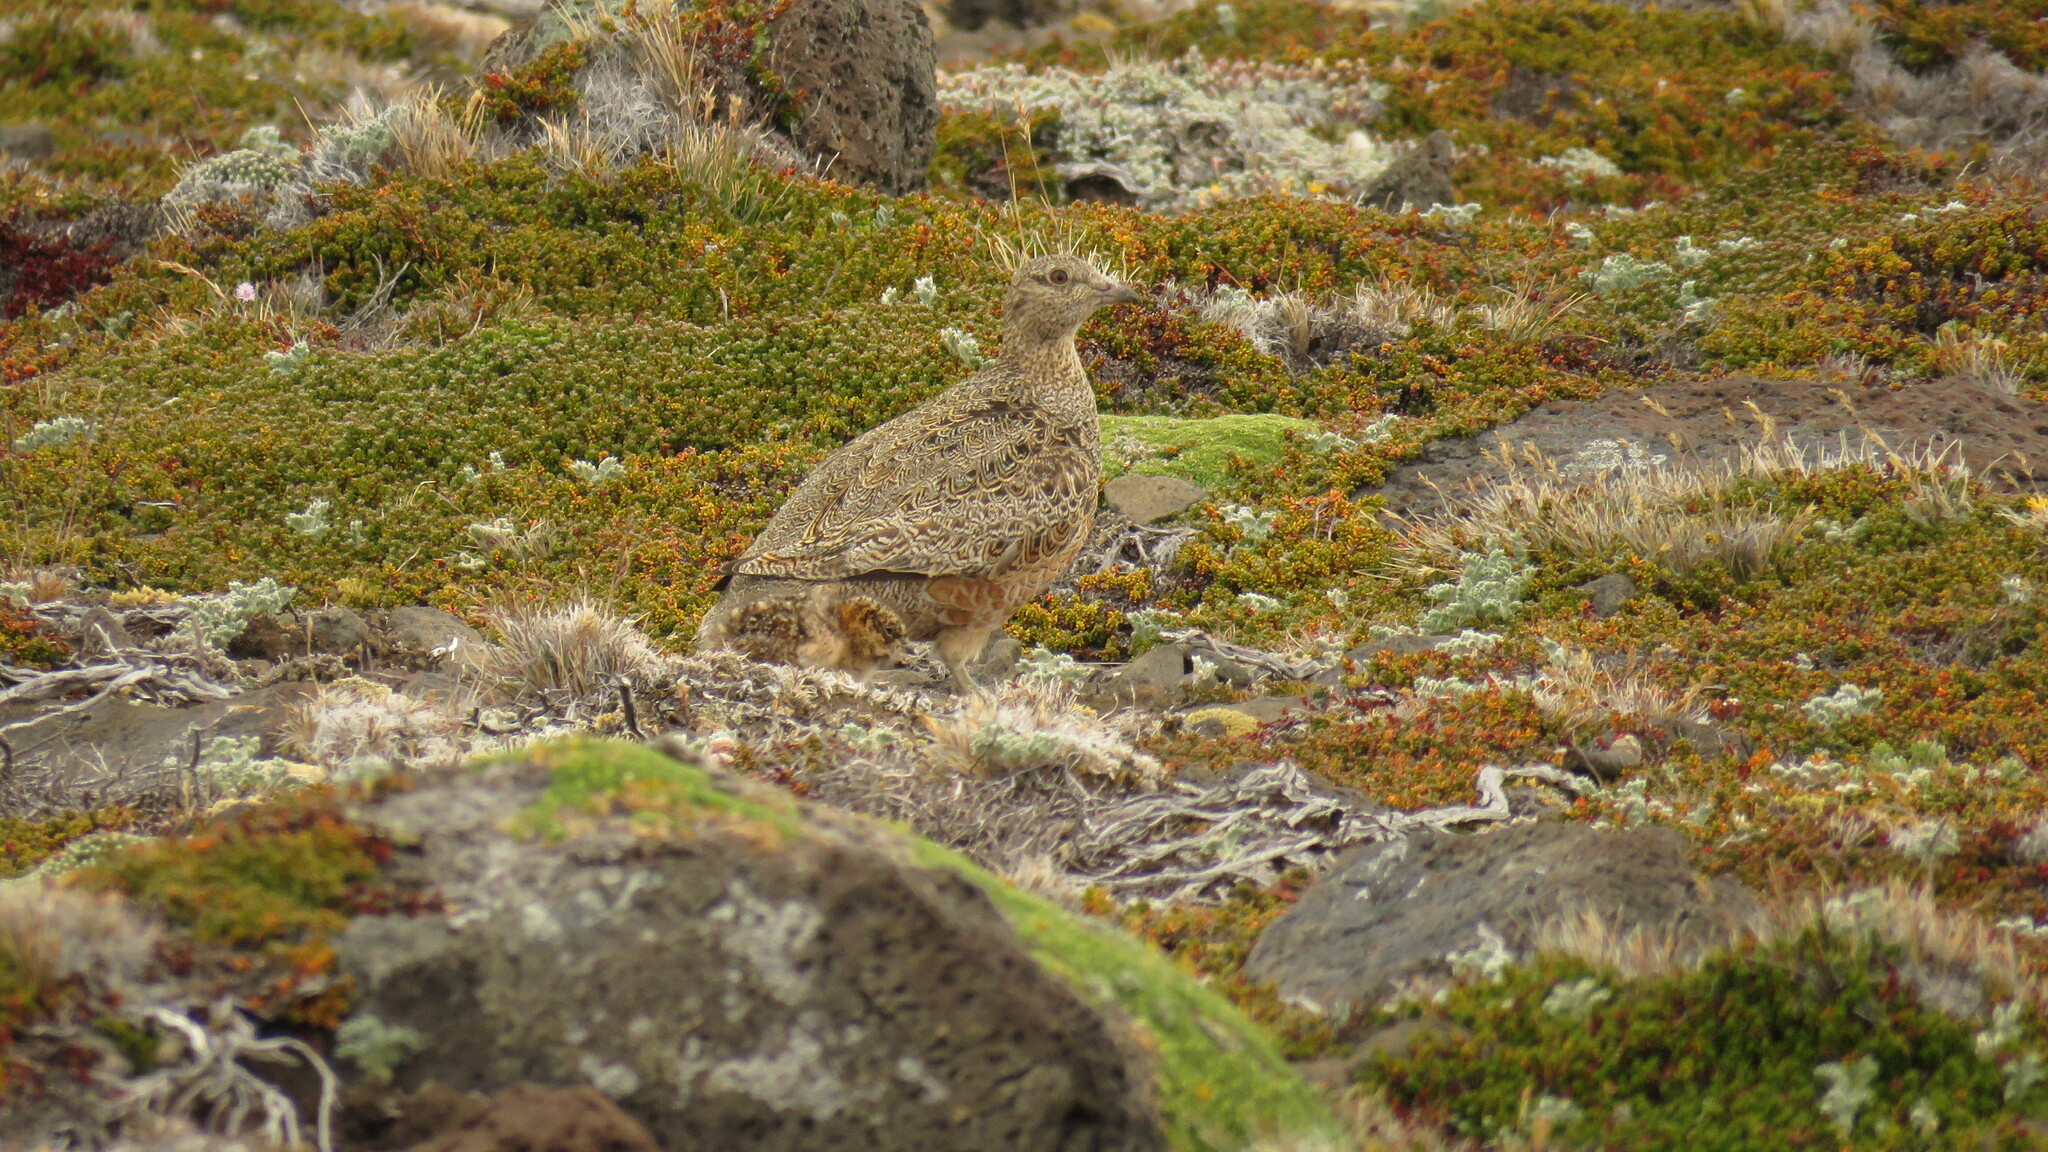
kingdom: Animalia
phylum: Chordata
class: Aves
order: Charadriiformes
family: Thinocoridae
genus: Attagis
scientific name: Attagis gayi
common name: Rufous-bellied seedsnipe
